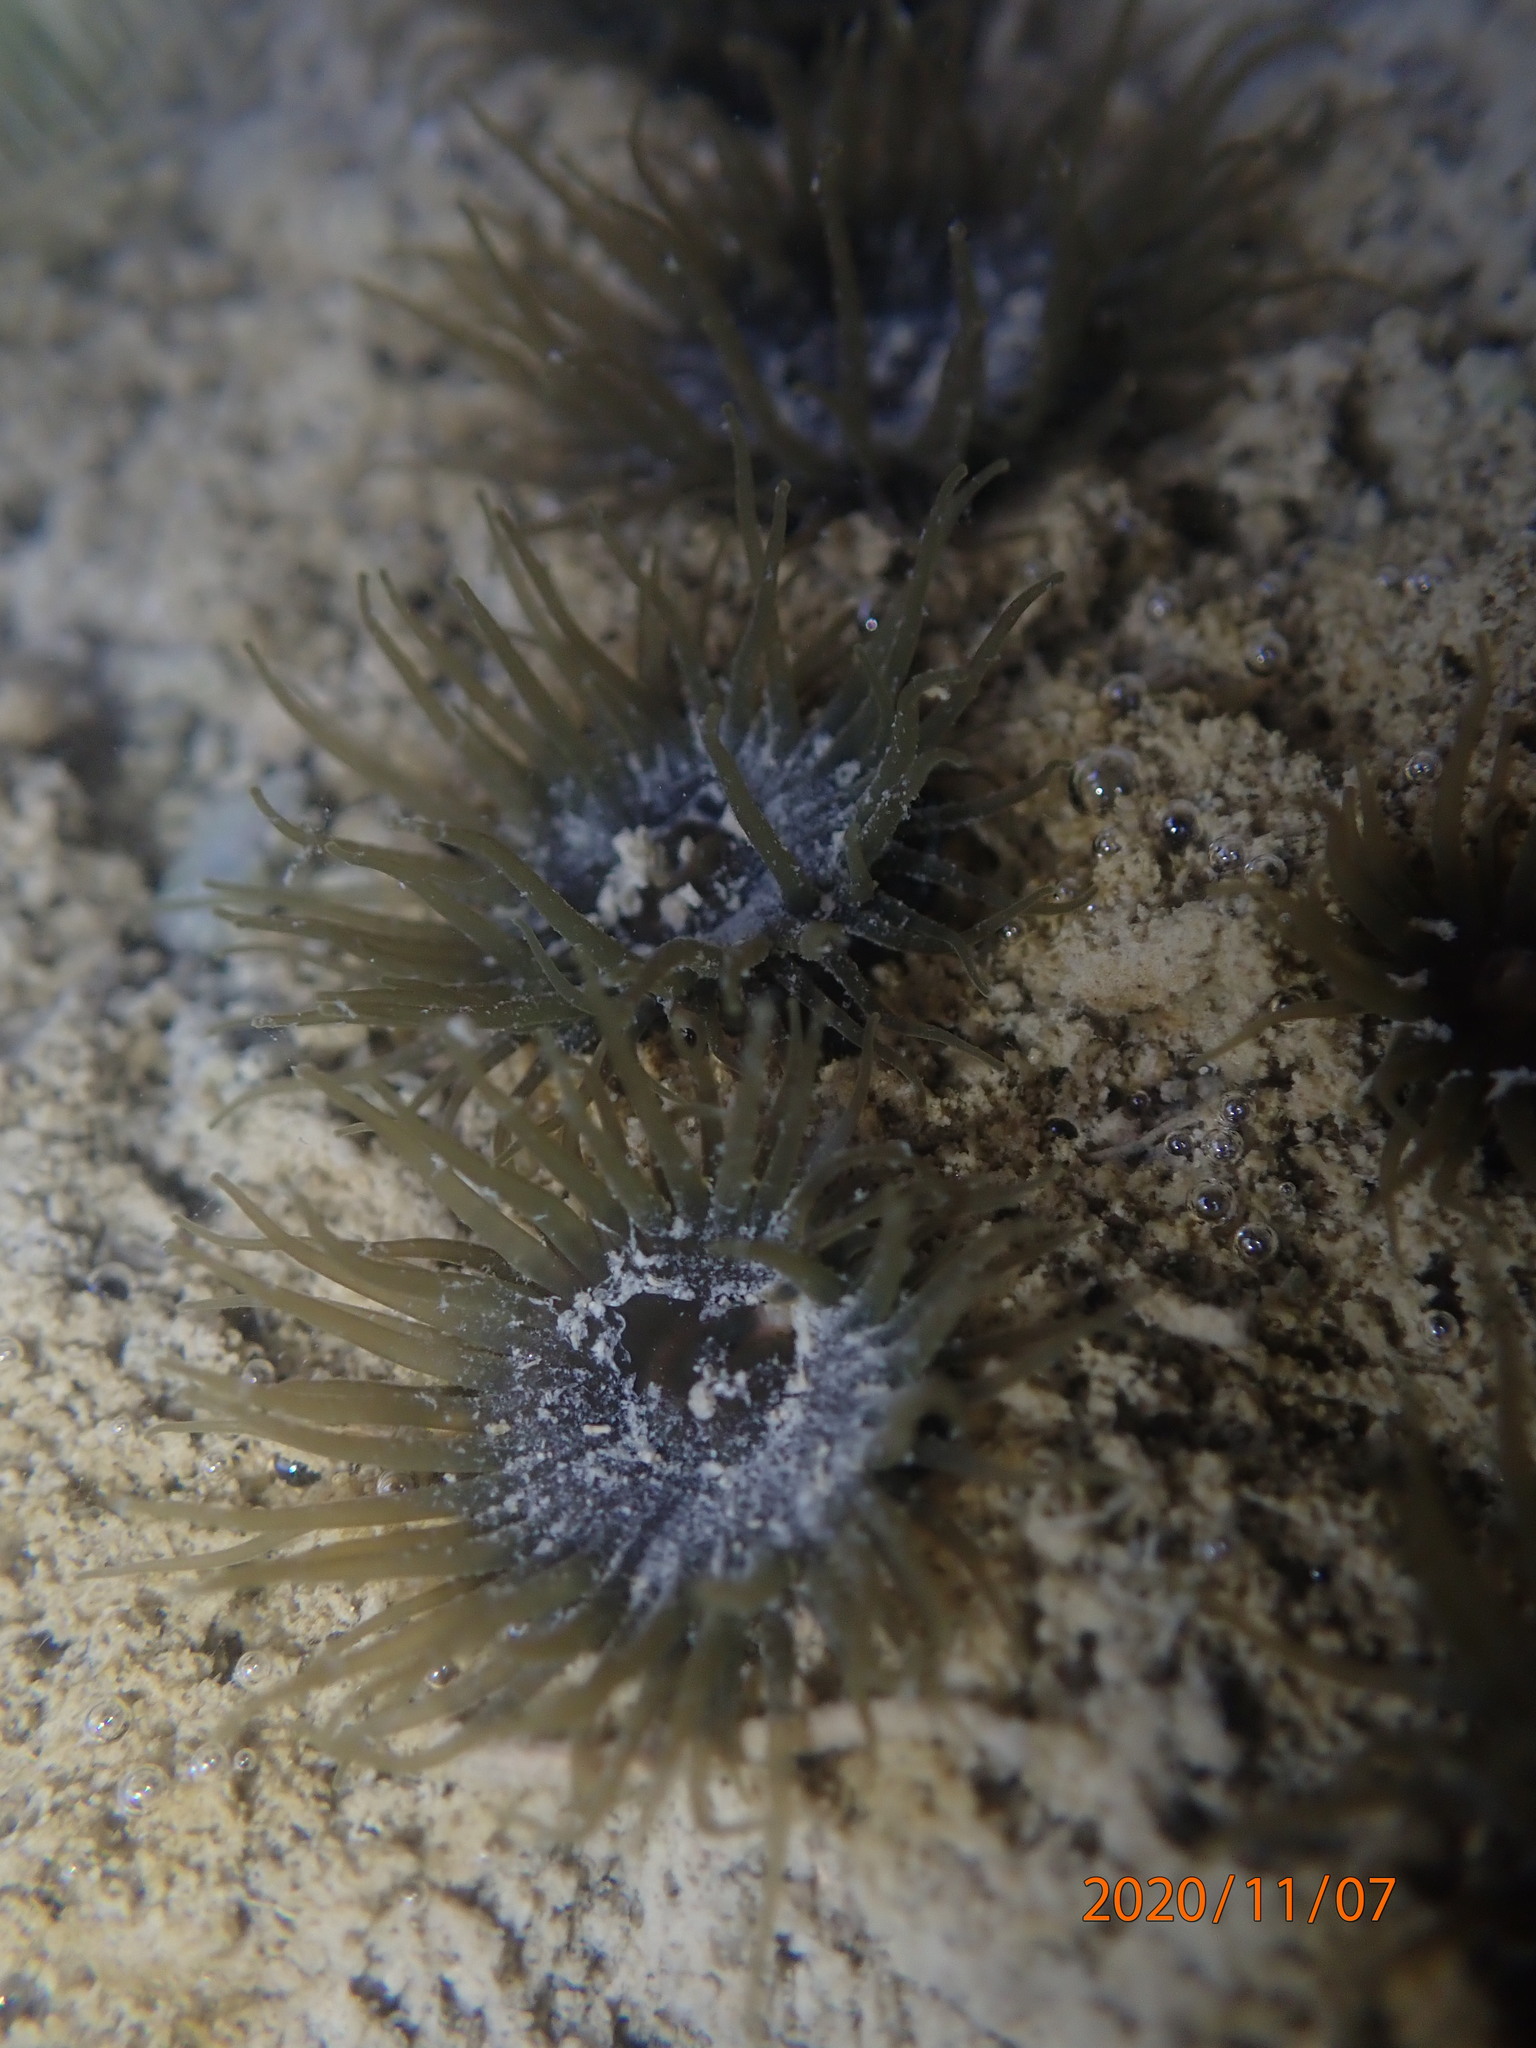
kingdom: Animalia
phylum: Cnidaria
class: Anthozoa
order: Actiniaria
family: Actiniidae
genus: Isactinia
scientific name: Isactinia olivacea
